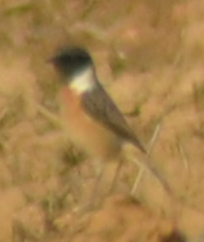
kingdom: Animalia
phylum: Chordata
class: Aves
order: Passeriformes
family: Muscicapidae
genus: Saxicola
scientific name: Saxicola rubicola
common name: European stonechat
